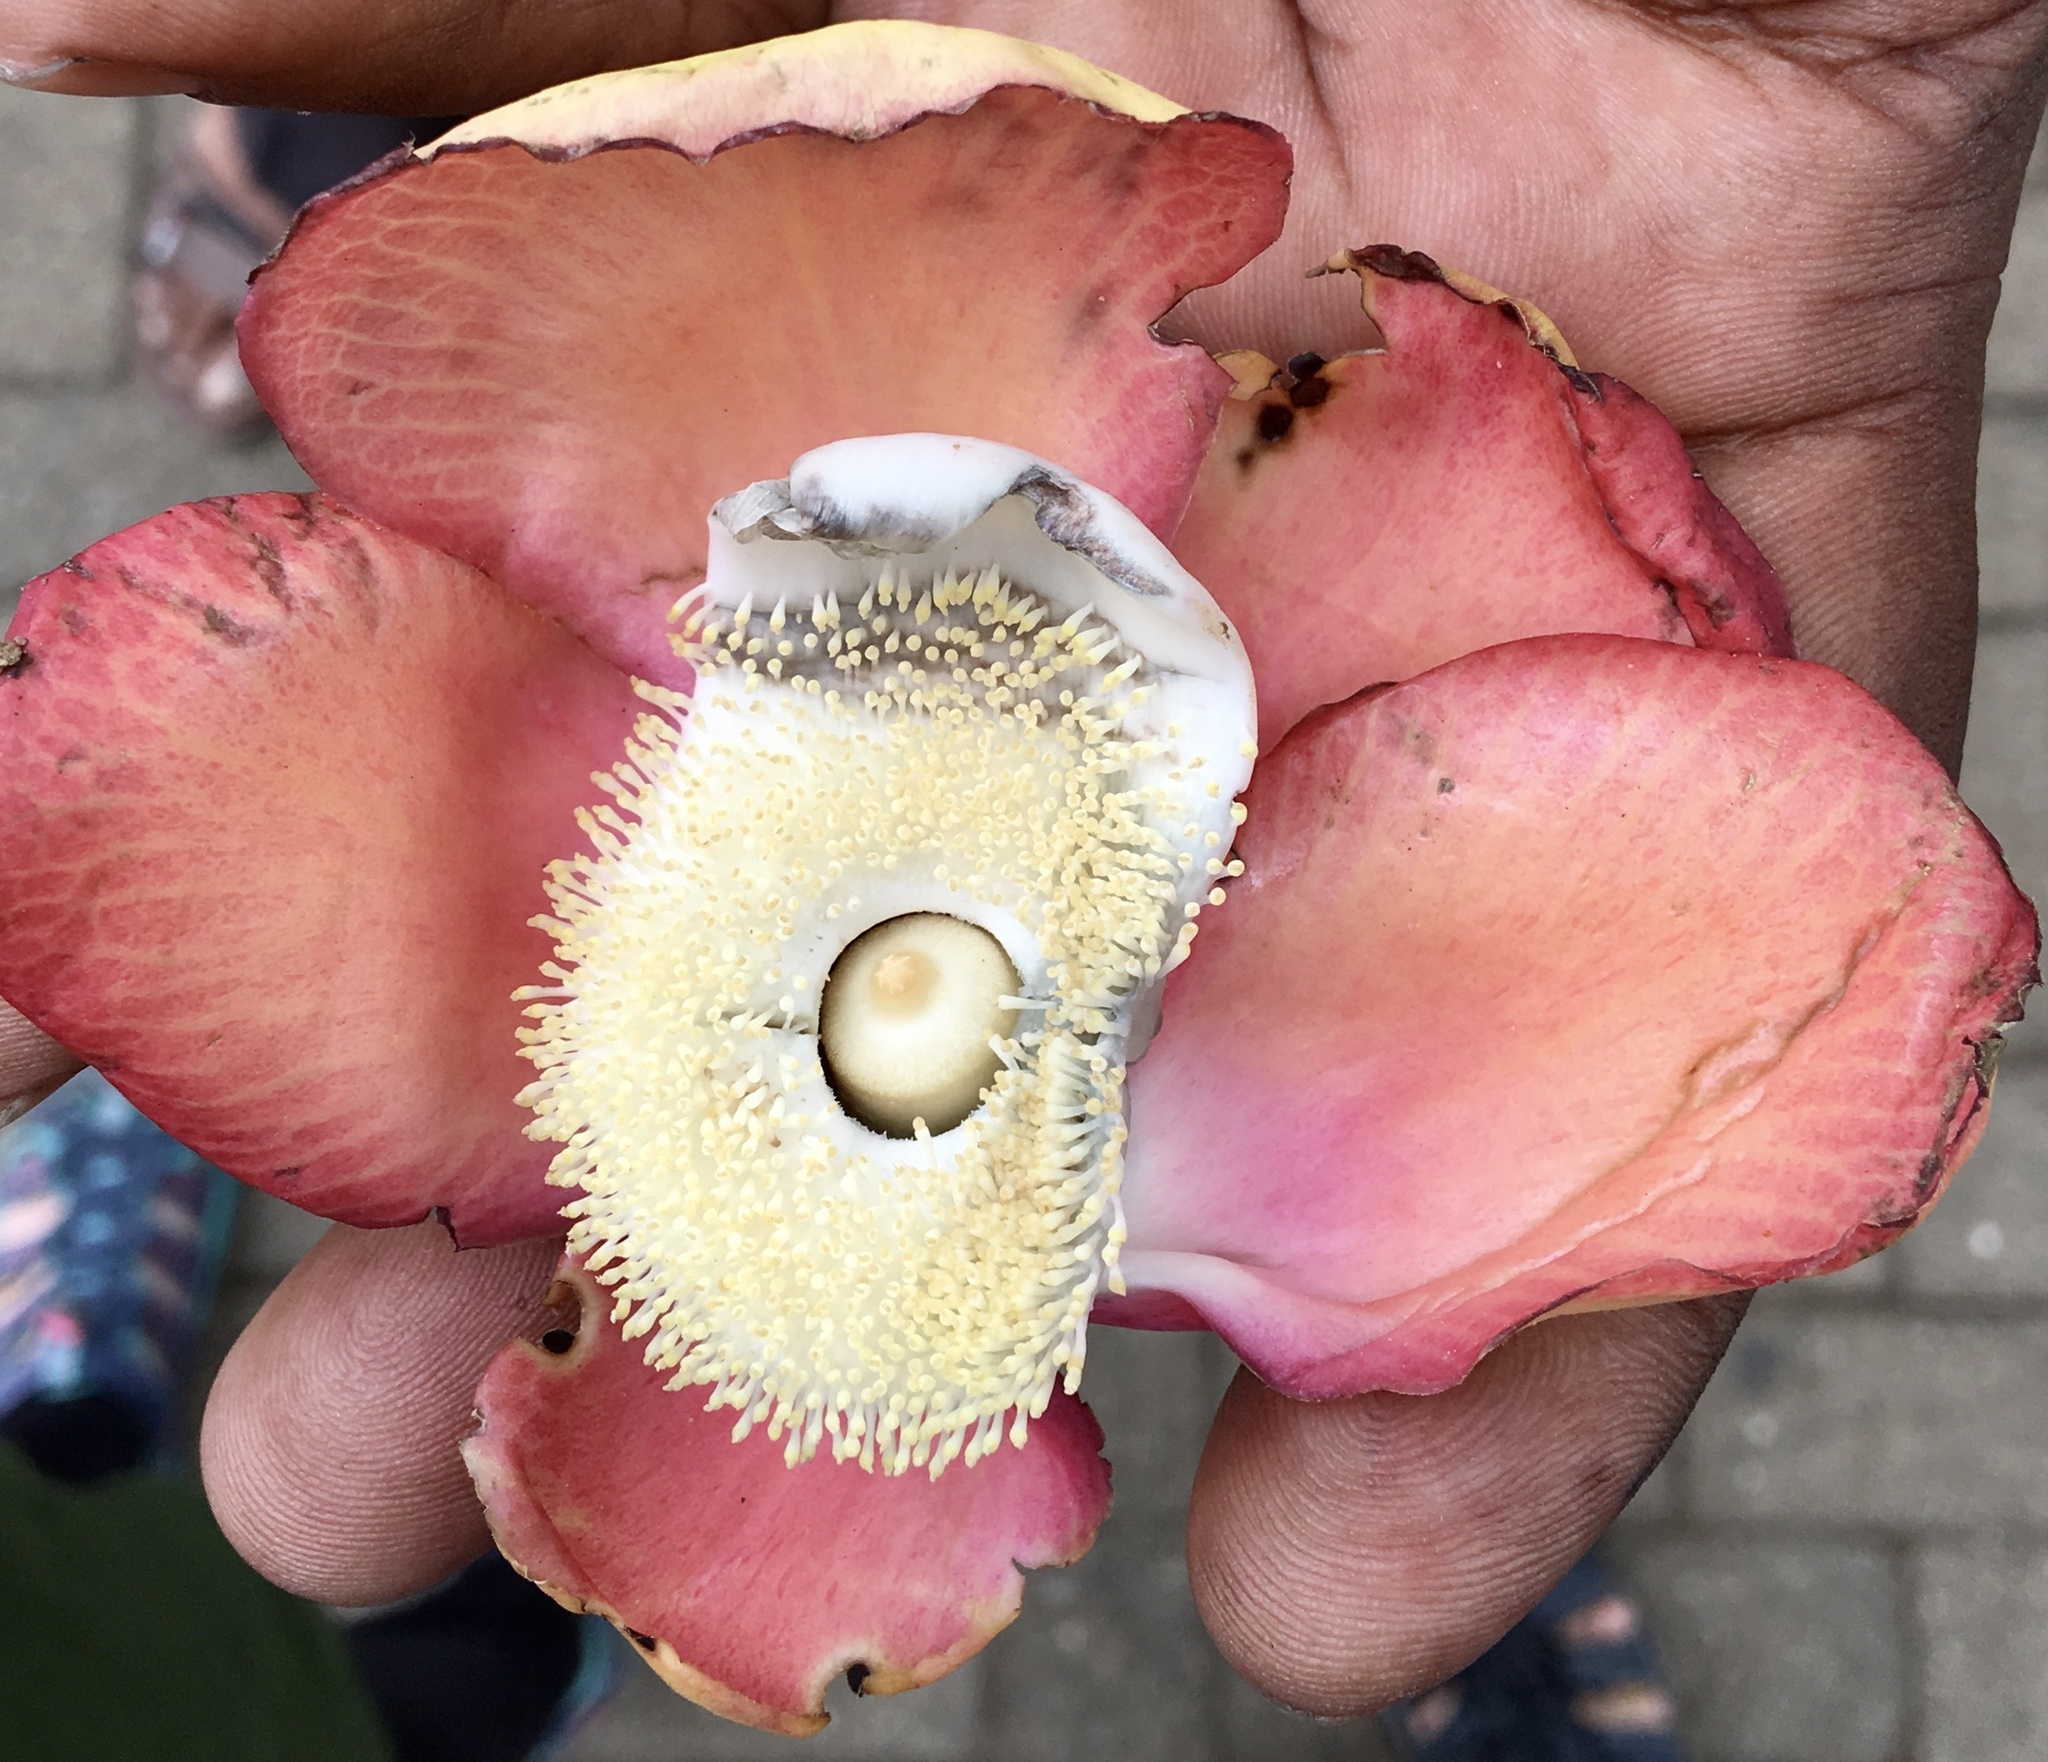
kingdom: Plantae
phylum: Tracheophyta
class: Magnoliopsida
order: Ericales
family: Lecythidaceae
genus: Couroupita
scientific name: Couroupita guianensis
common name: Cannonball tree
